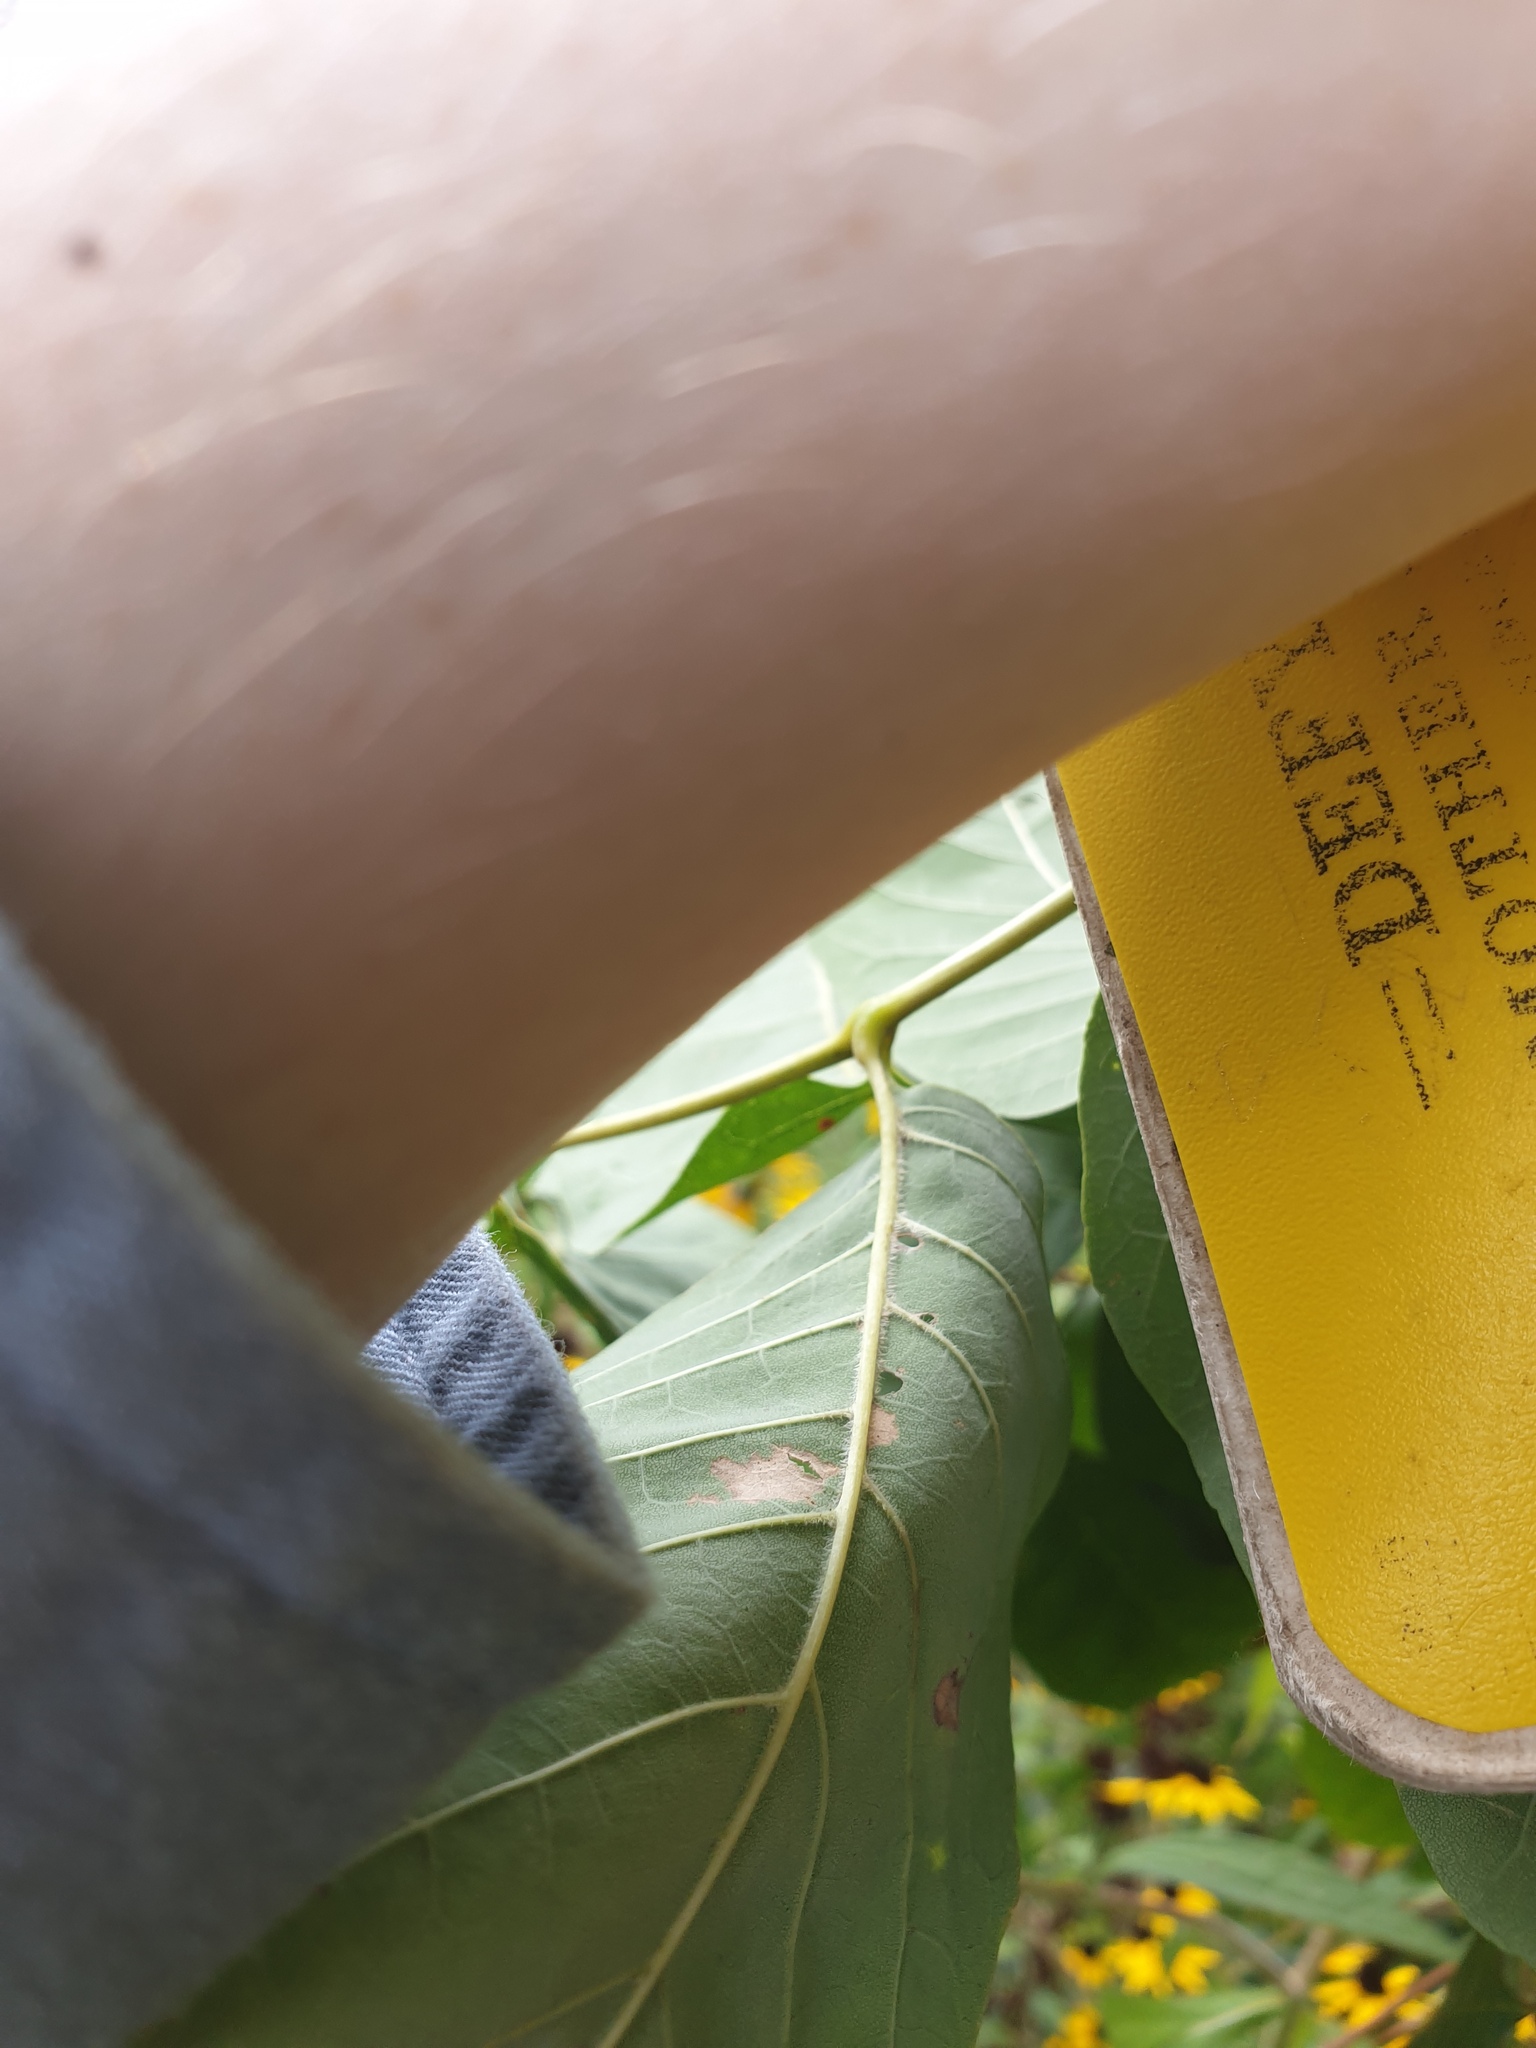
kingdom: Plantae
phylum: Tracheophyta
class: Magnoliopsida
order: Lamiales
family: Oleaceae
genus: Fraxinus
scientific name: Fraxinus americana
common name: White ash
